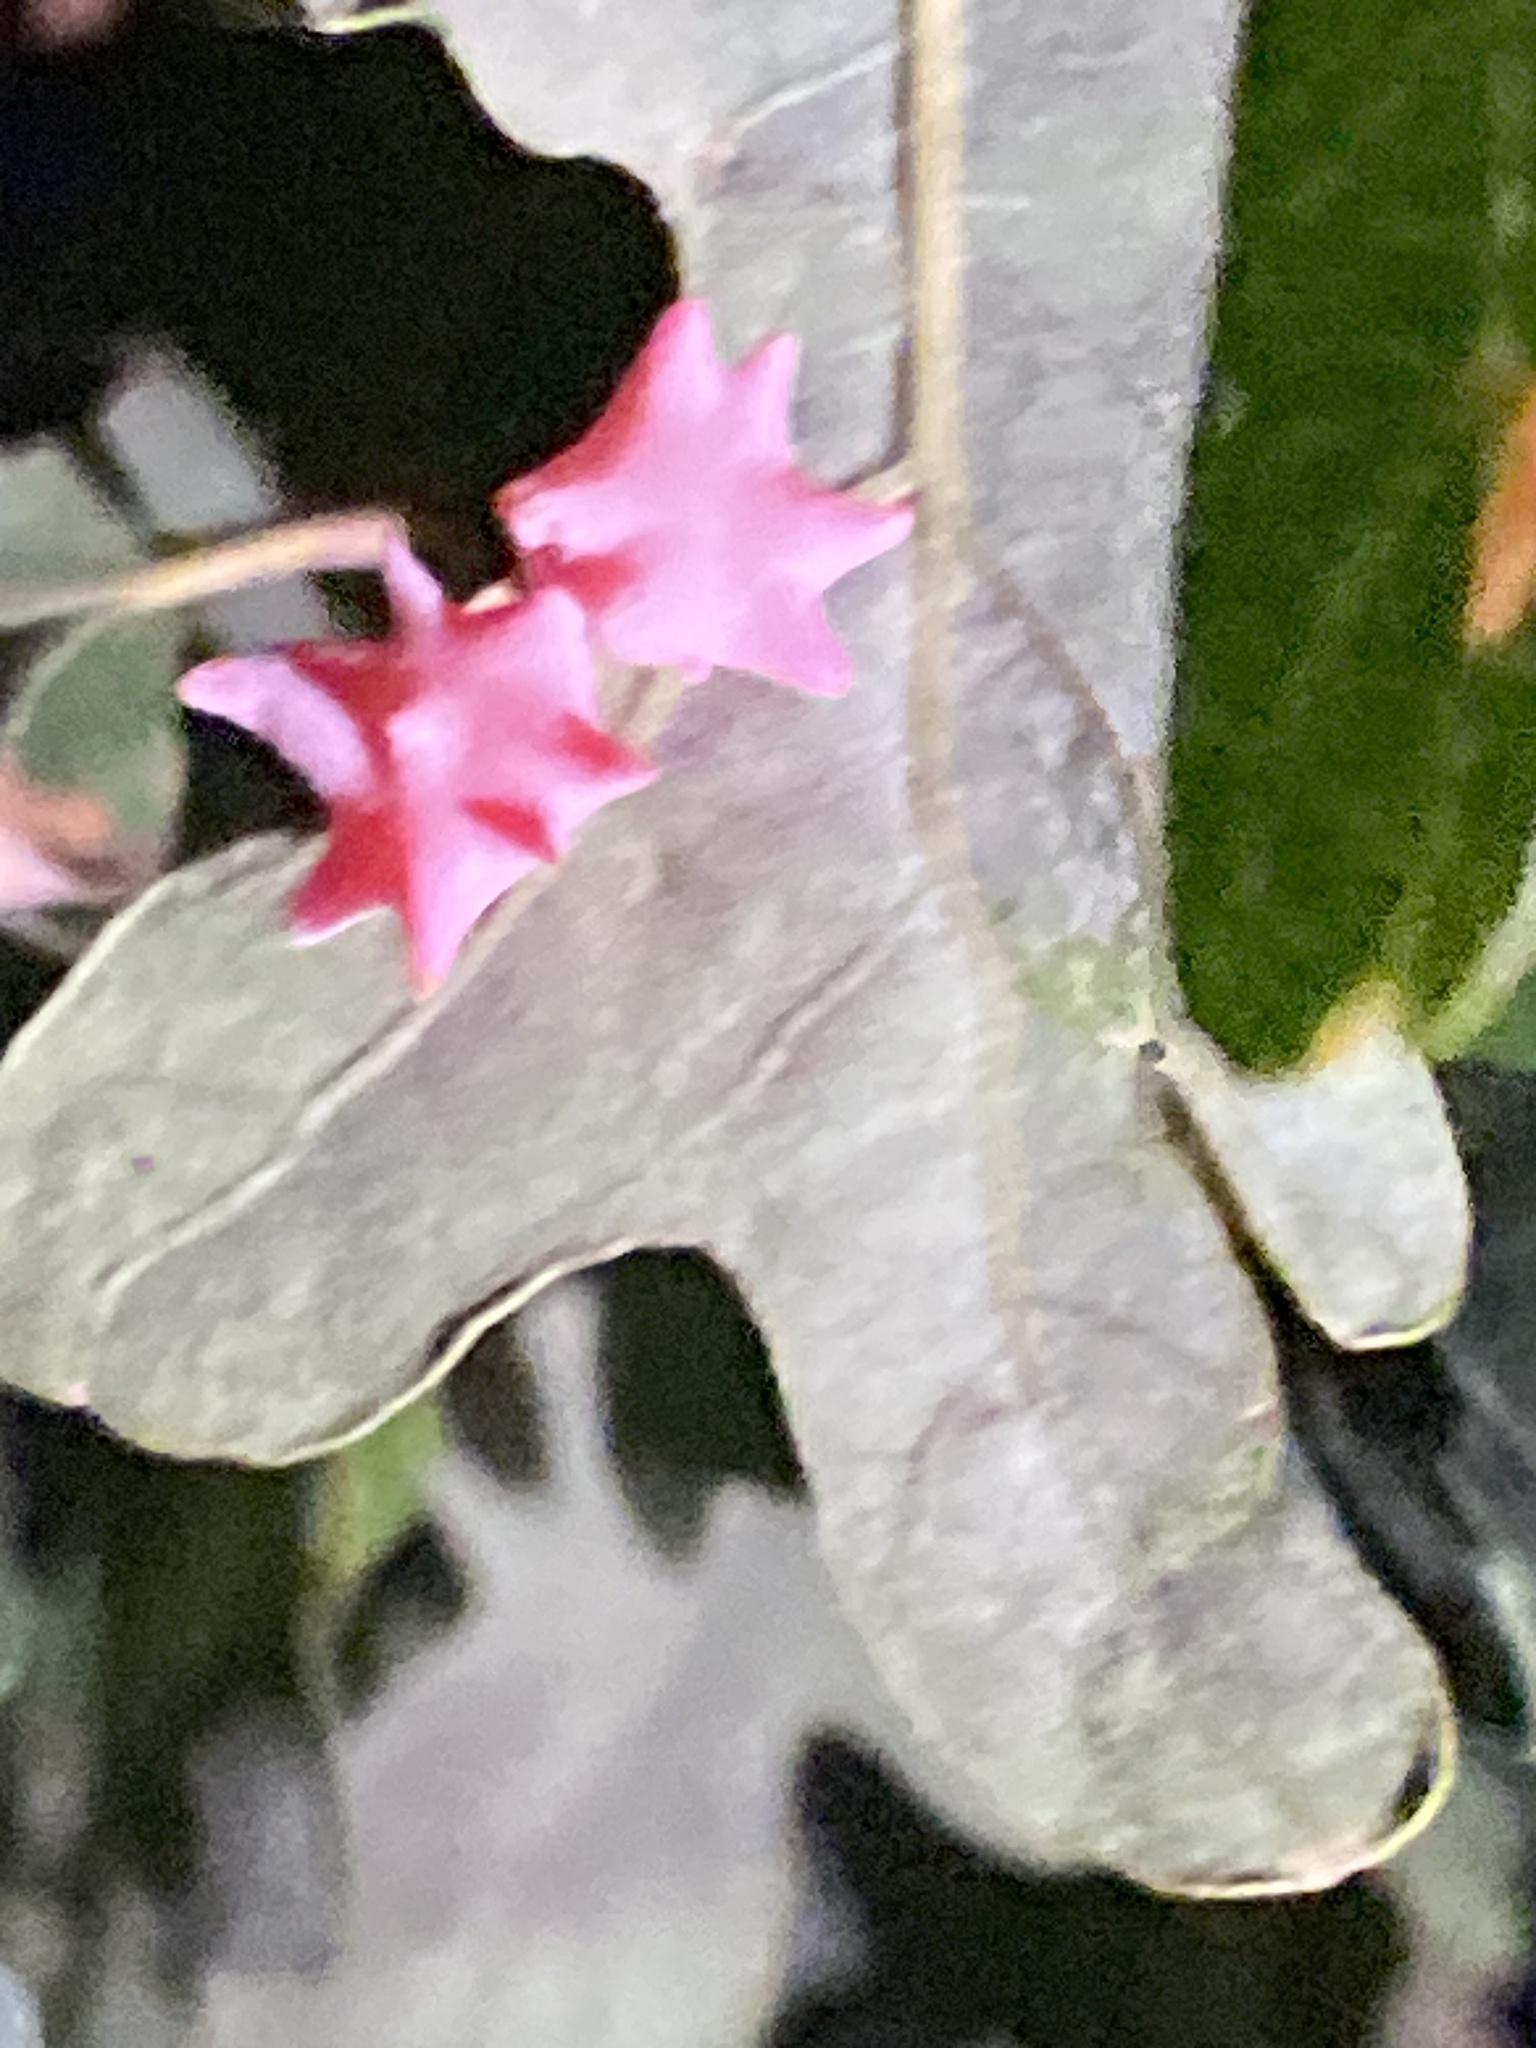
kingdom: Animalia
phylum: Arthropoda
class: Insecta
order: Hymenoptera
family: Cynipidae
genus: Cynips
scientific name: Cynips douglasi
